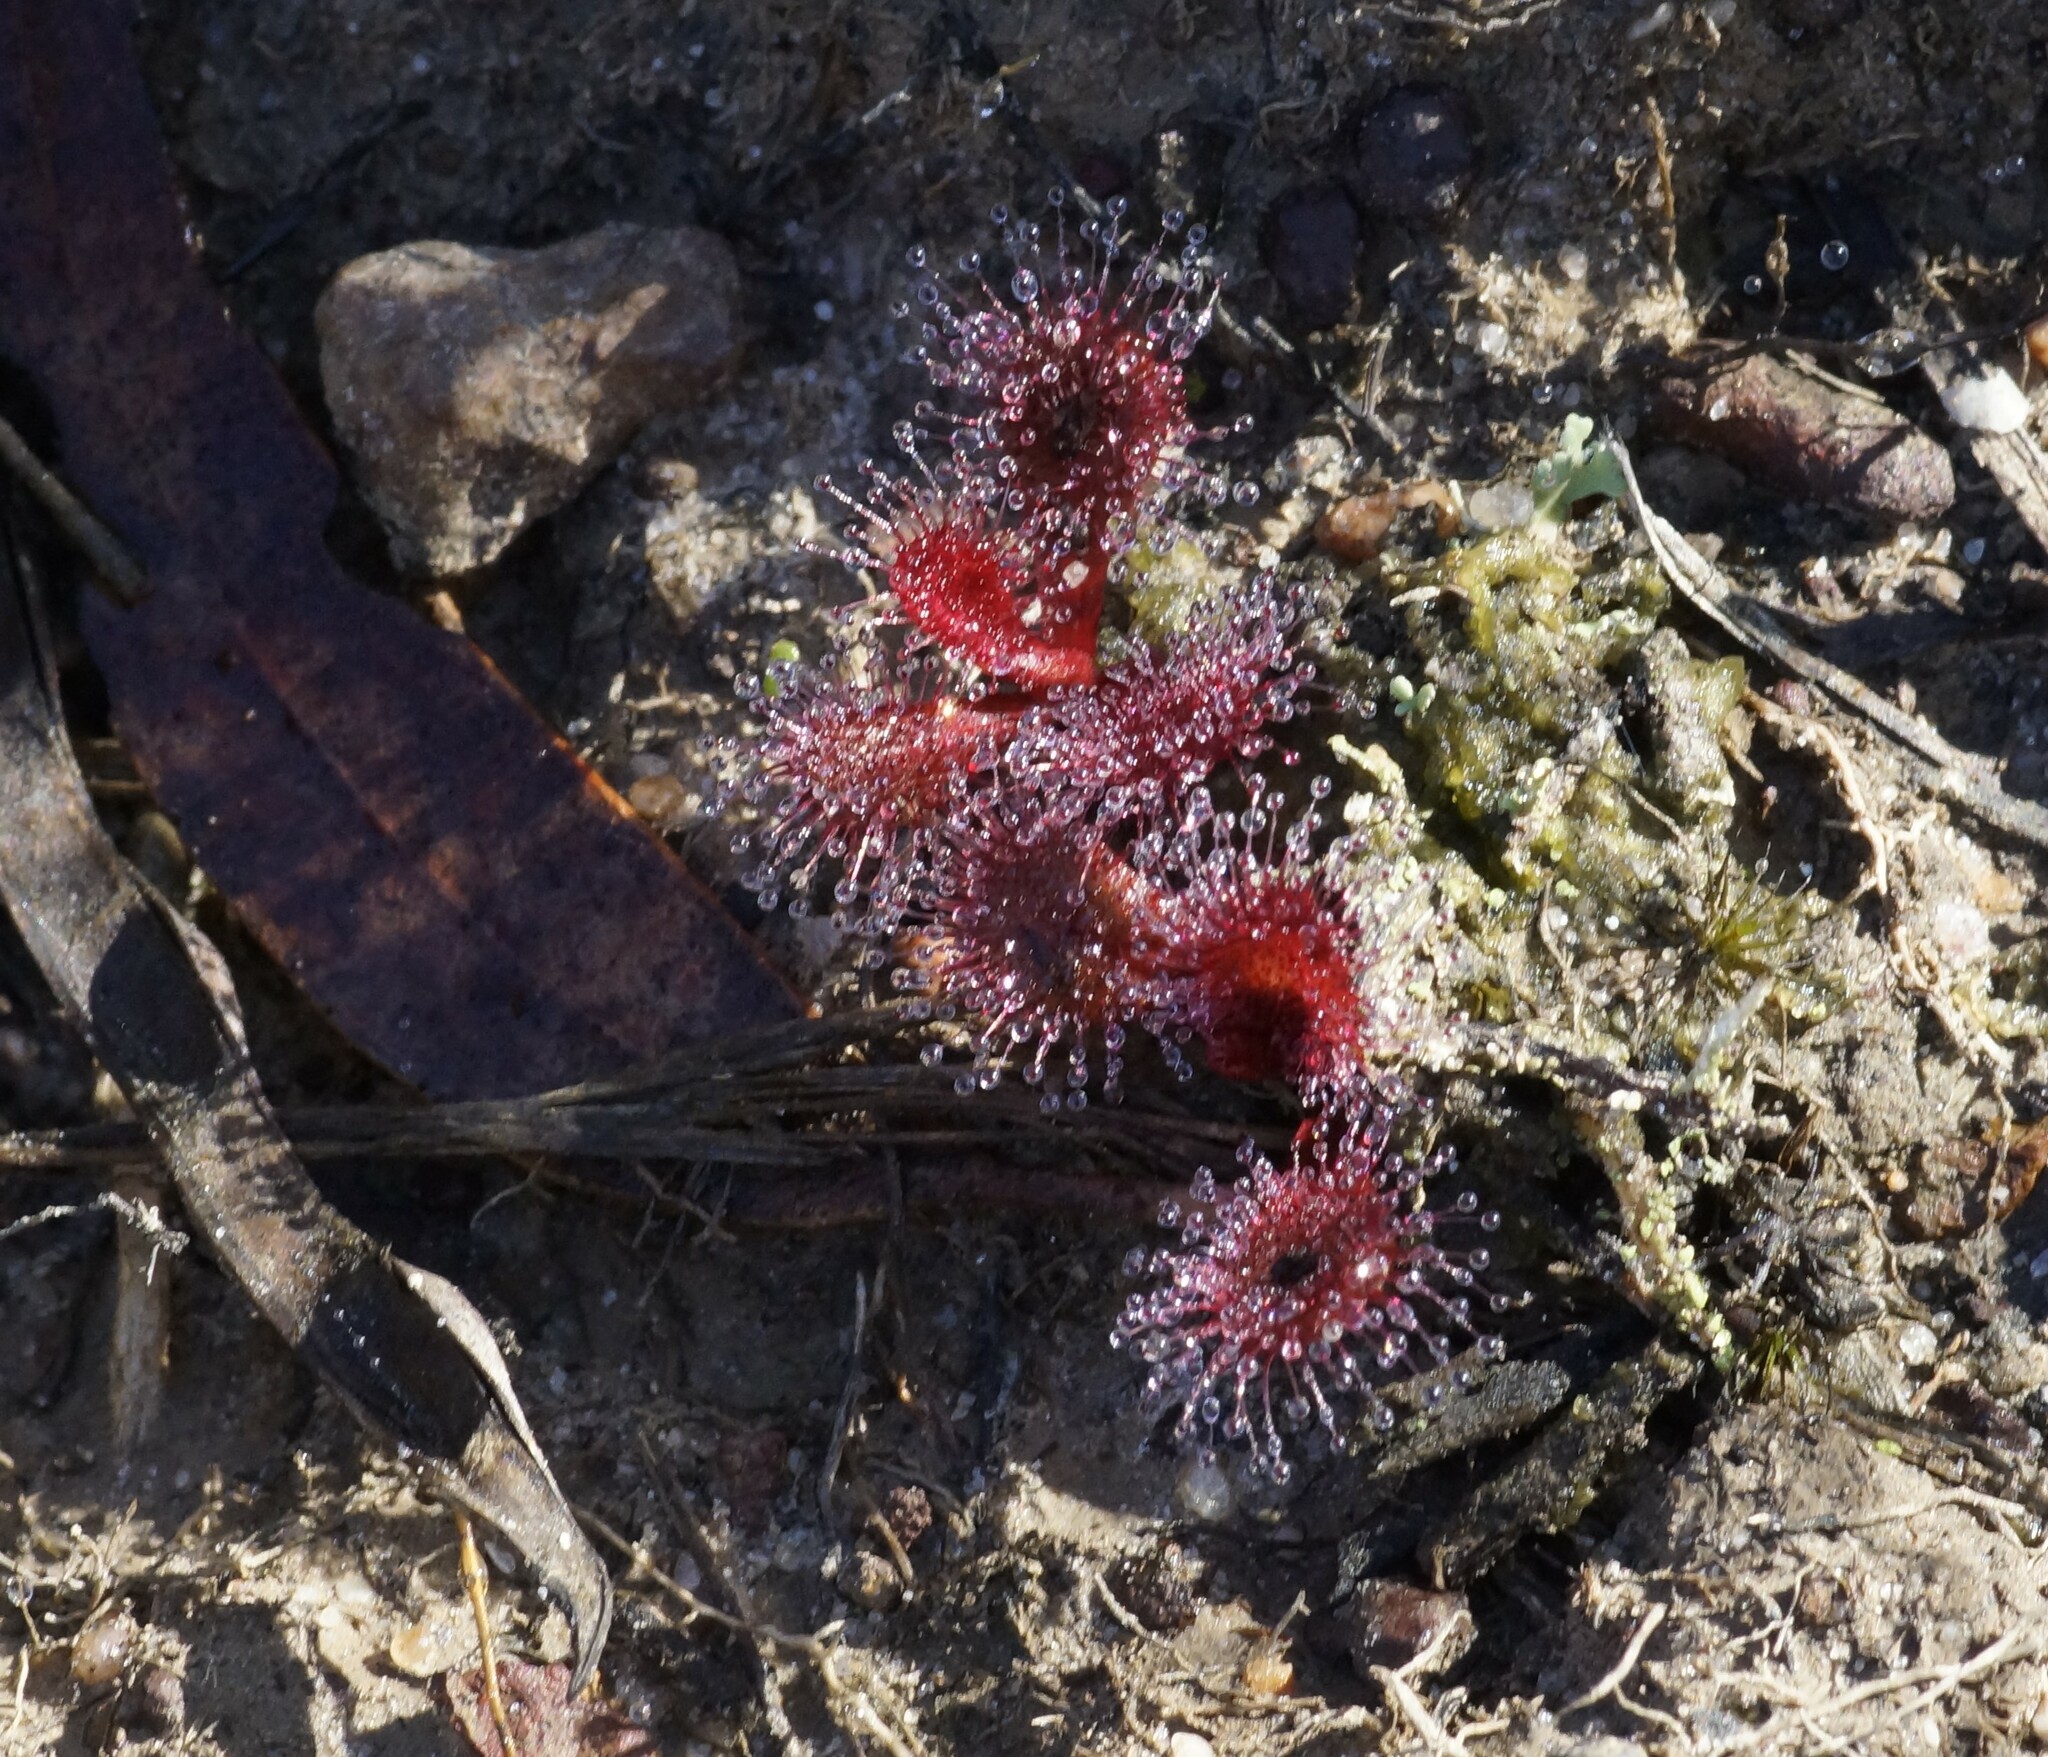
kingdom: Plantae
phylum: Tracheophyta
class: Magnoliopsida
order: Caryophyllales
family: Droseraceae
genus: Drosera
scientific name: Drosera aberrans
